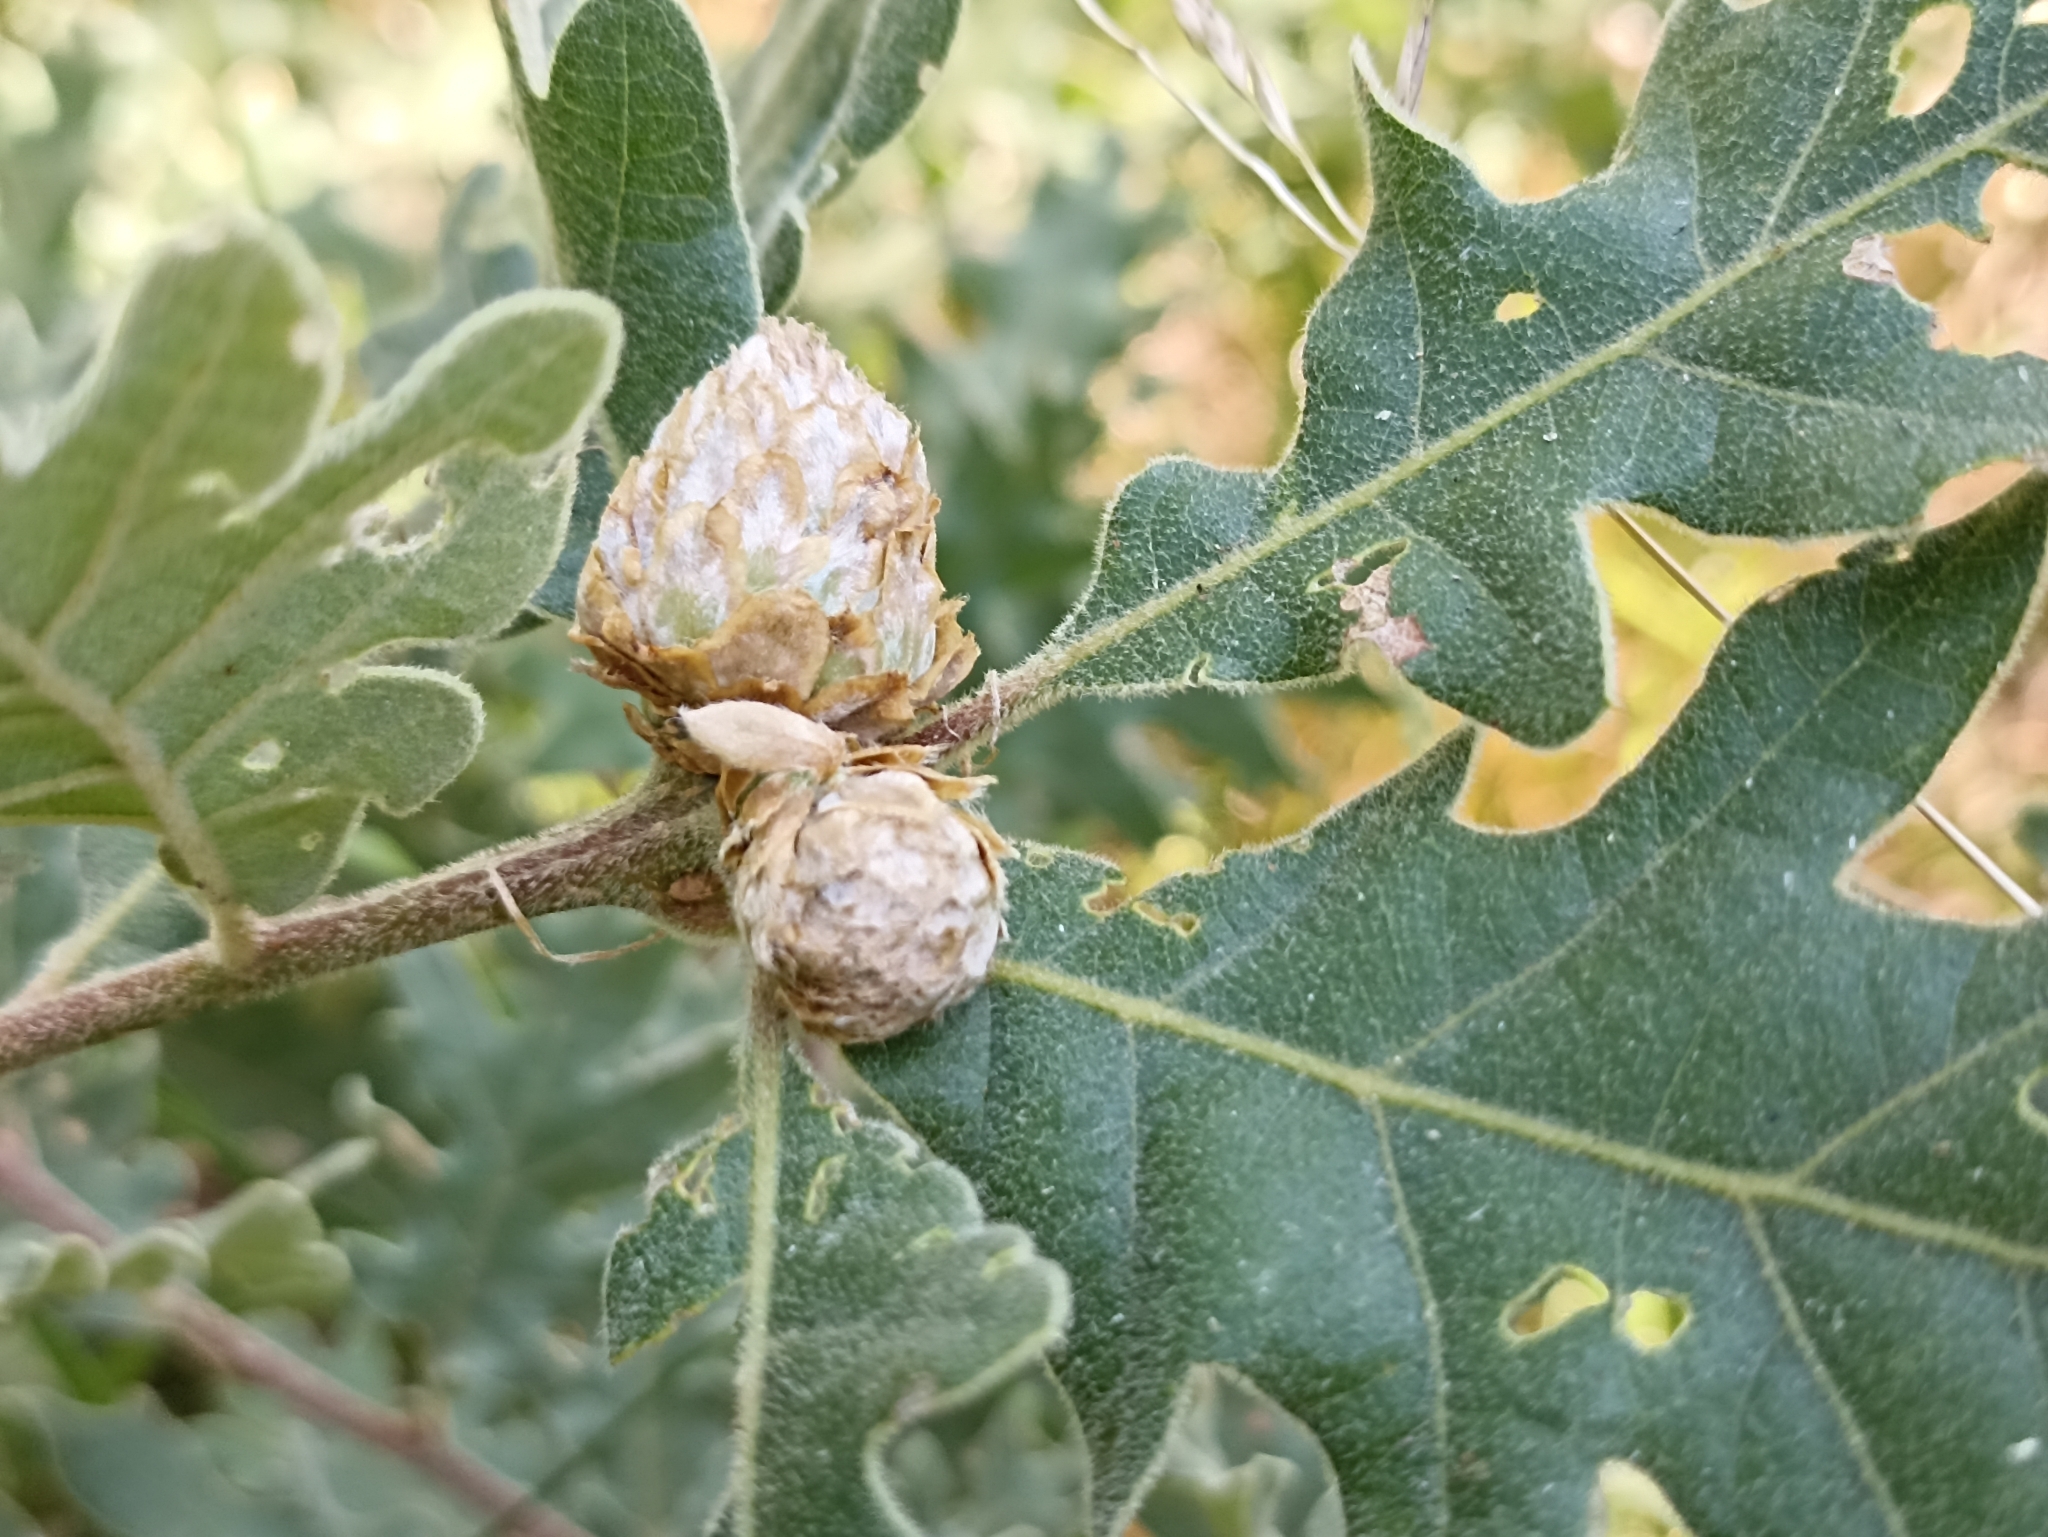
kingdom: Animalia
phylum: Arthropoda
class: Insecta
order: Hymenoptera
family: Cynipidae
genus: Andricus
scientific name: Andricus foecundatrix
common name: Artichoke gall
